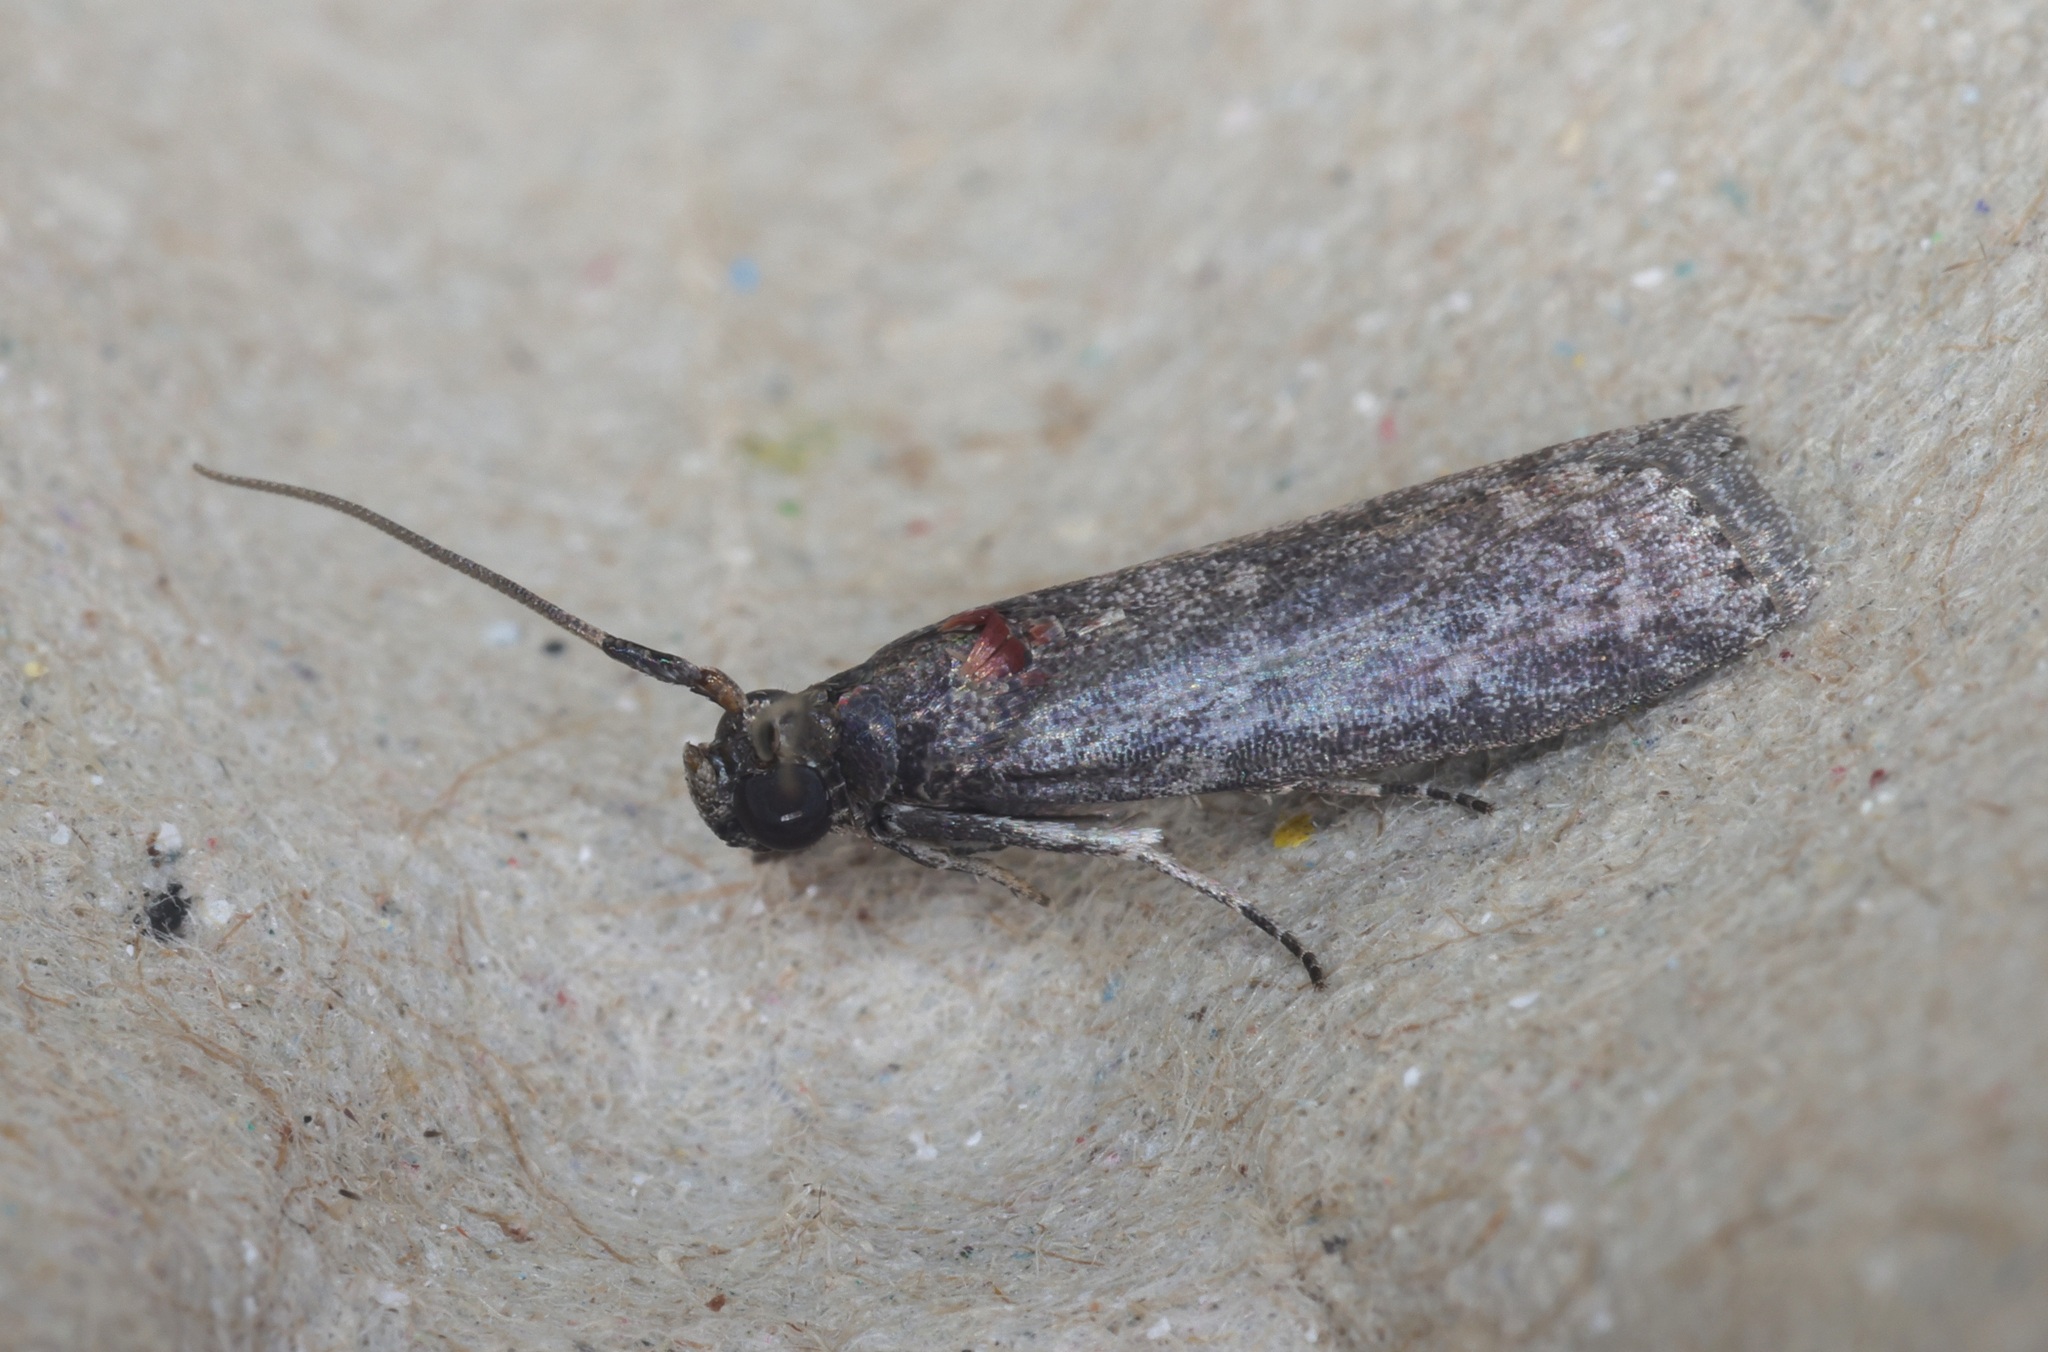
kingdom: Animalia
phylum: Arthropoda
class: Insecta
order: Lepidoptera
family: Pyralidae
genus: Ectomyelois
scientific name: Ectomyelois ceratoniae
